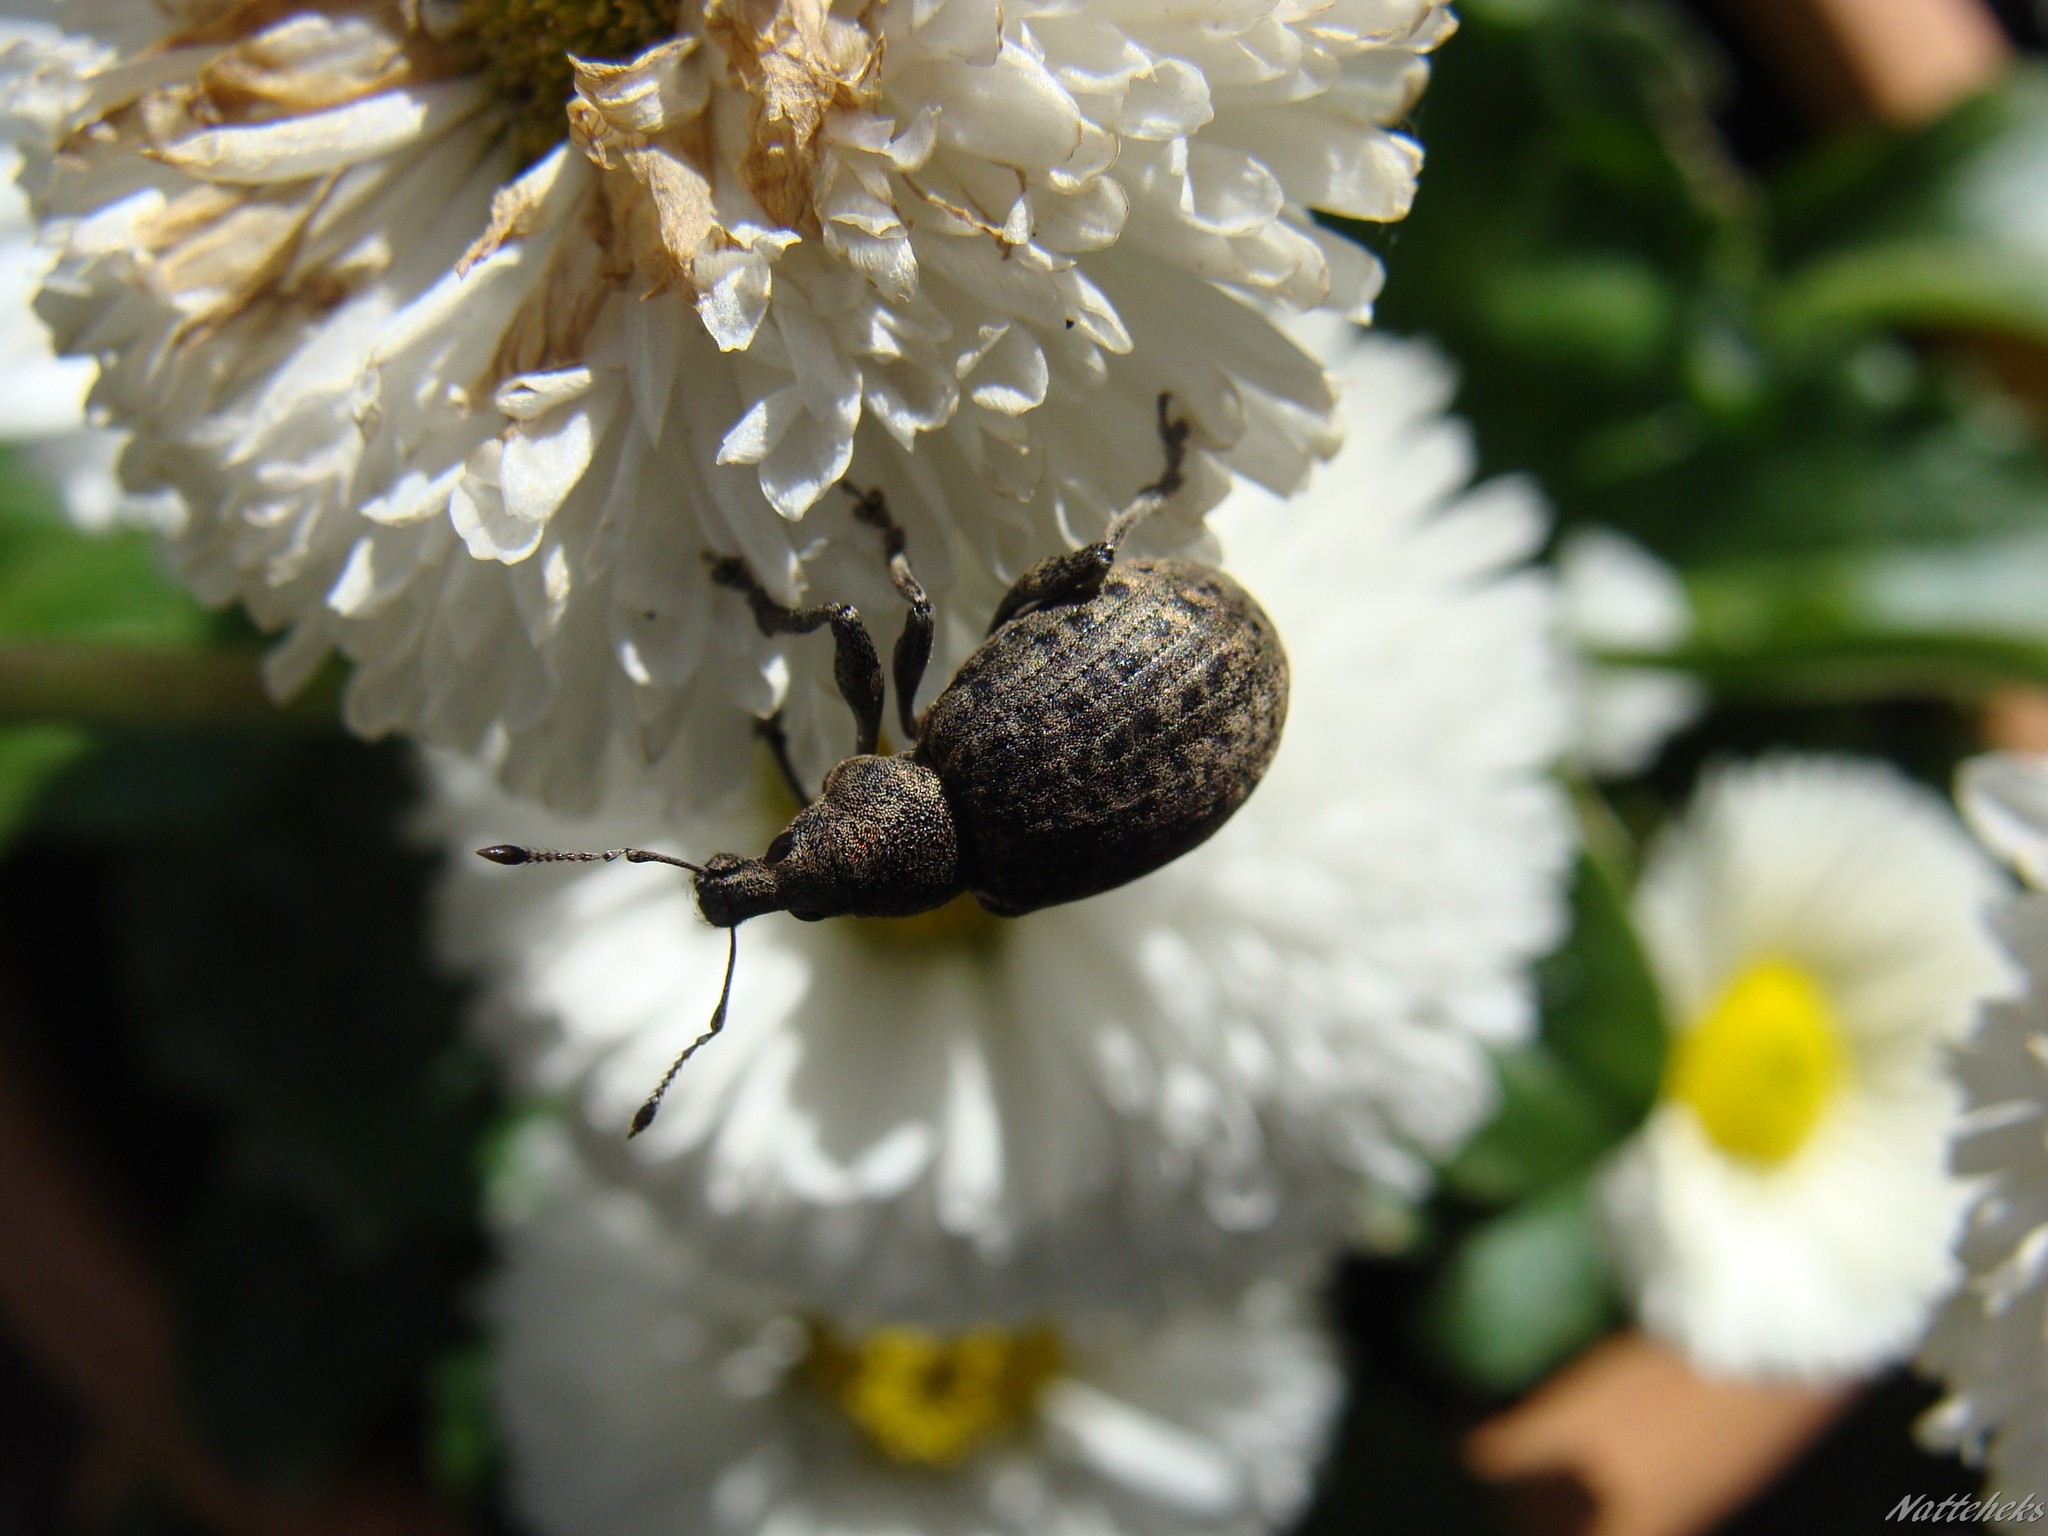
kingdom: Animalia
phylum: Arthropoda
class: Insecta
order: Coleoptera
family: Curculionidae
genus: Liophloeus
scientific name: Liophloeus tessulatus
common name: Weevil
